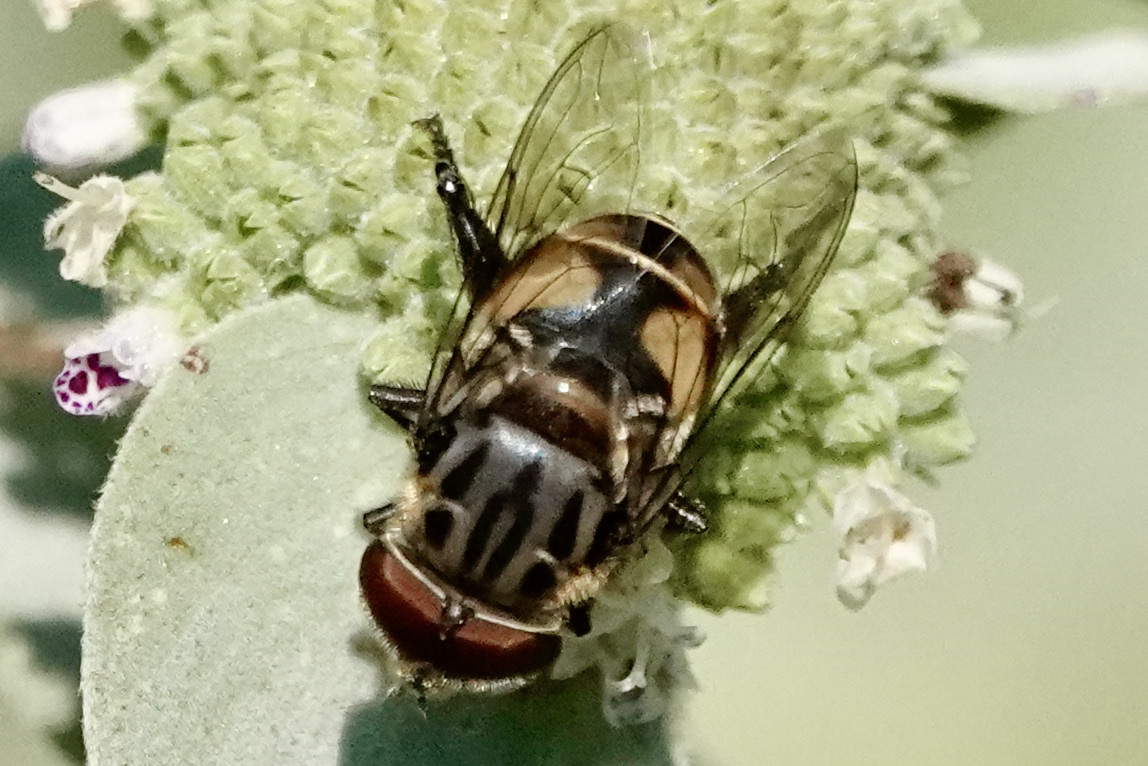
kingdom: Animalia
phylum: Arthropoda
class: Insecta
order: Diptera
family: Syrphidae
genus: Palpada
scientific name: Palpada furcata
